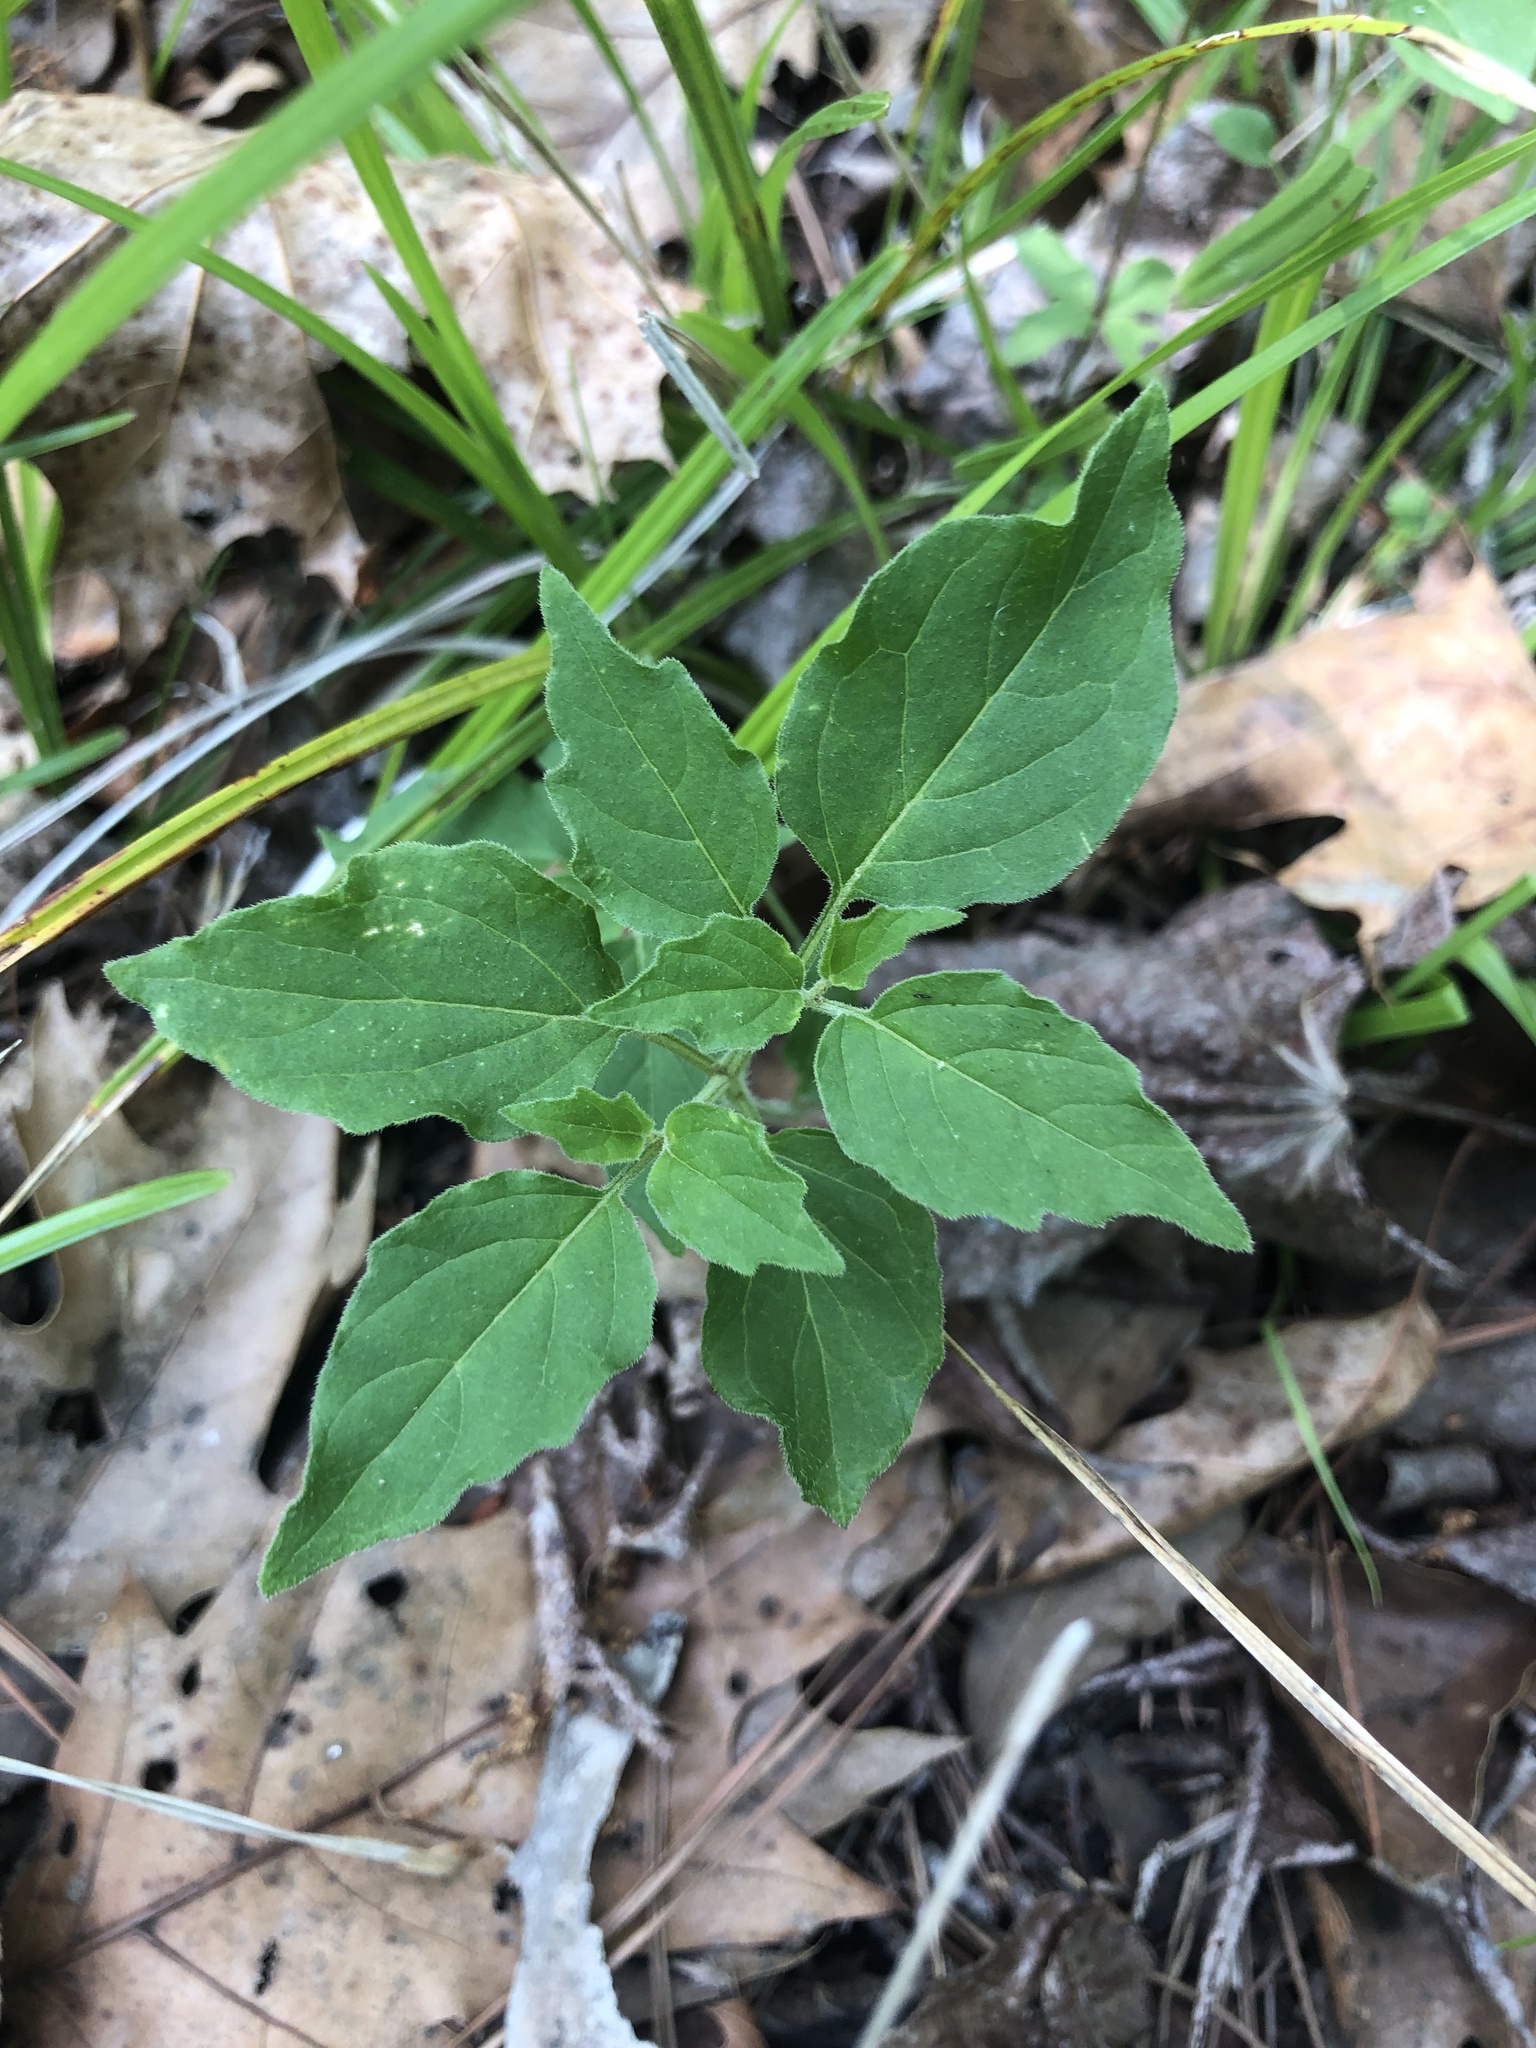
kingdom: Plantae
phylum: Tracheophyta
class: Magnoliopsida
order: Solanales
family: Solanaceae
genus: Physalis
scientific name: Physalis virginiana
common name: Virginia ground-cherry
